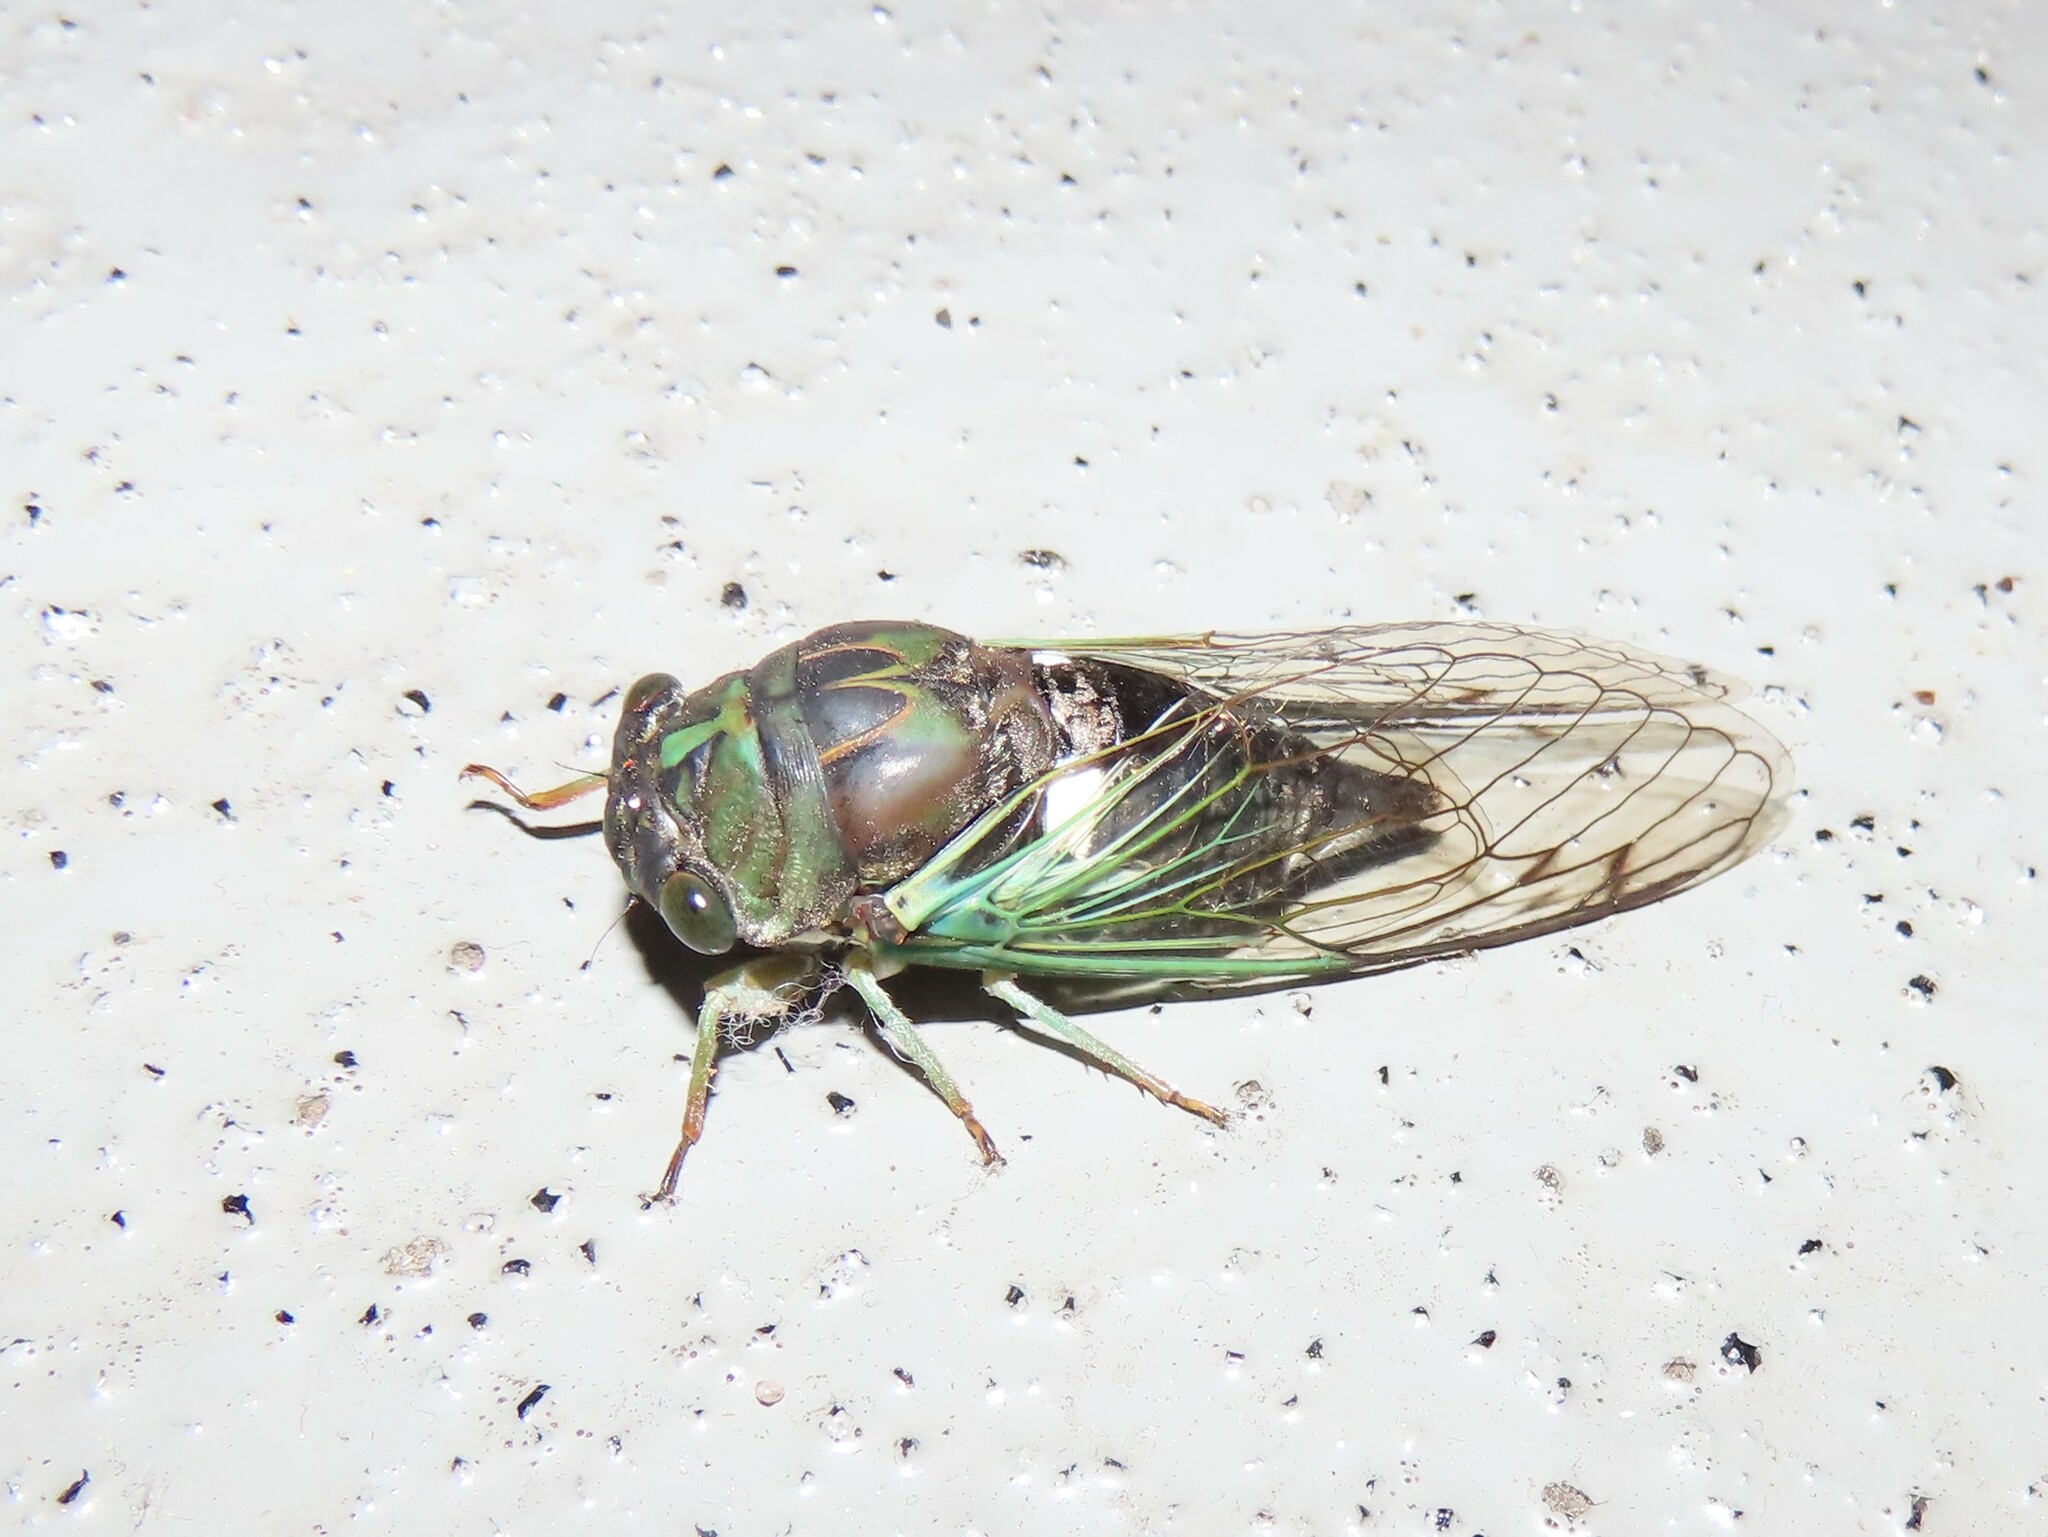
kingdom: Animalia
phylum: Arthropoda
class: Insecta
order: Hemiptera
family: Cicadidae
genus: Neotibicen
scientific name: Neotibicen tibicen
